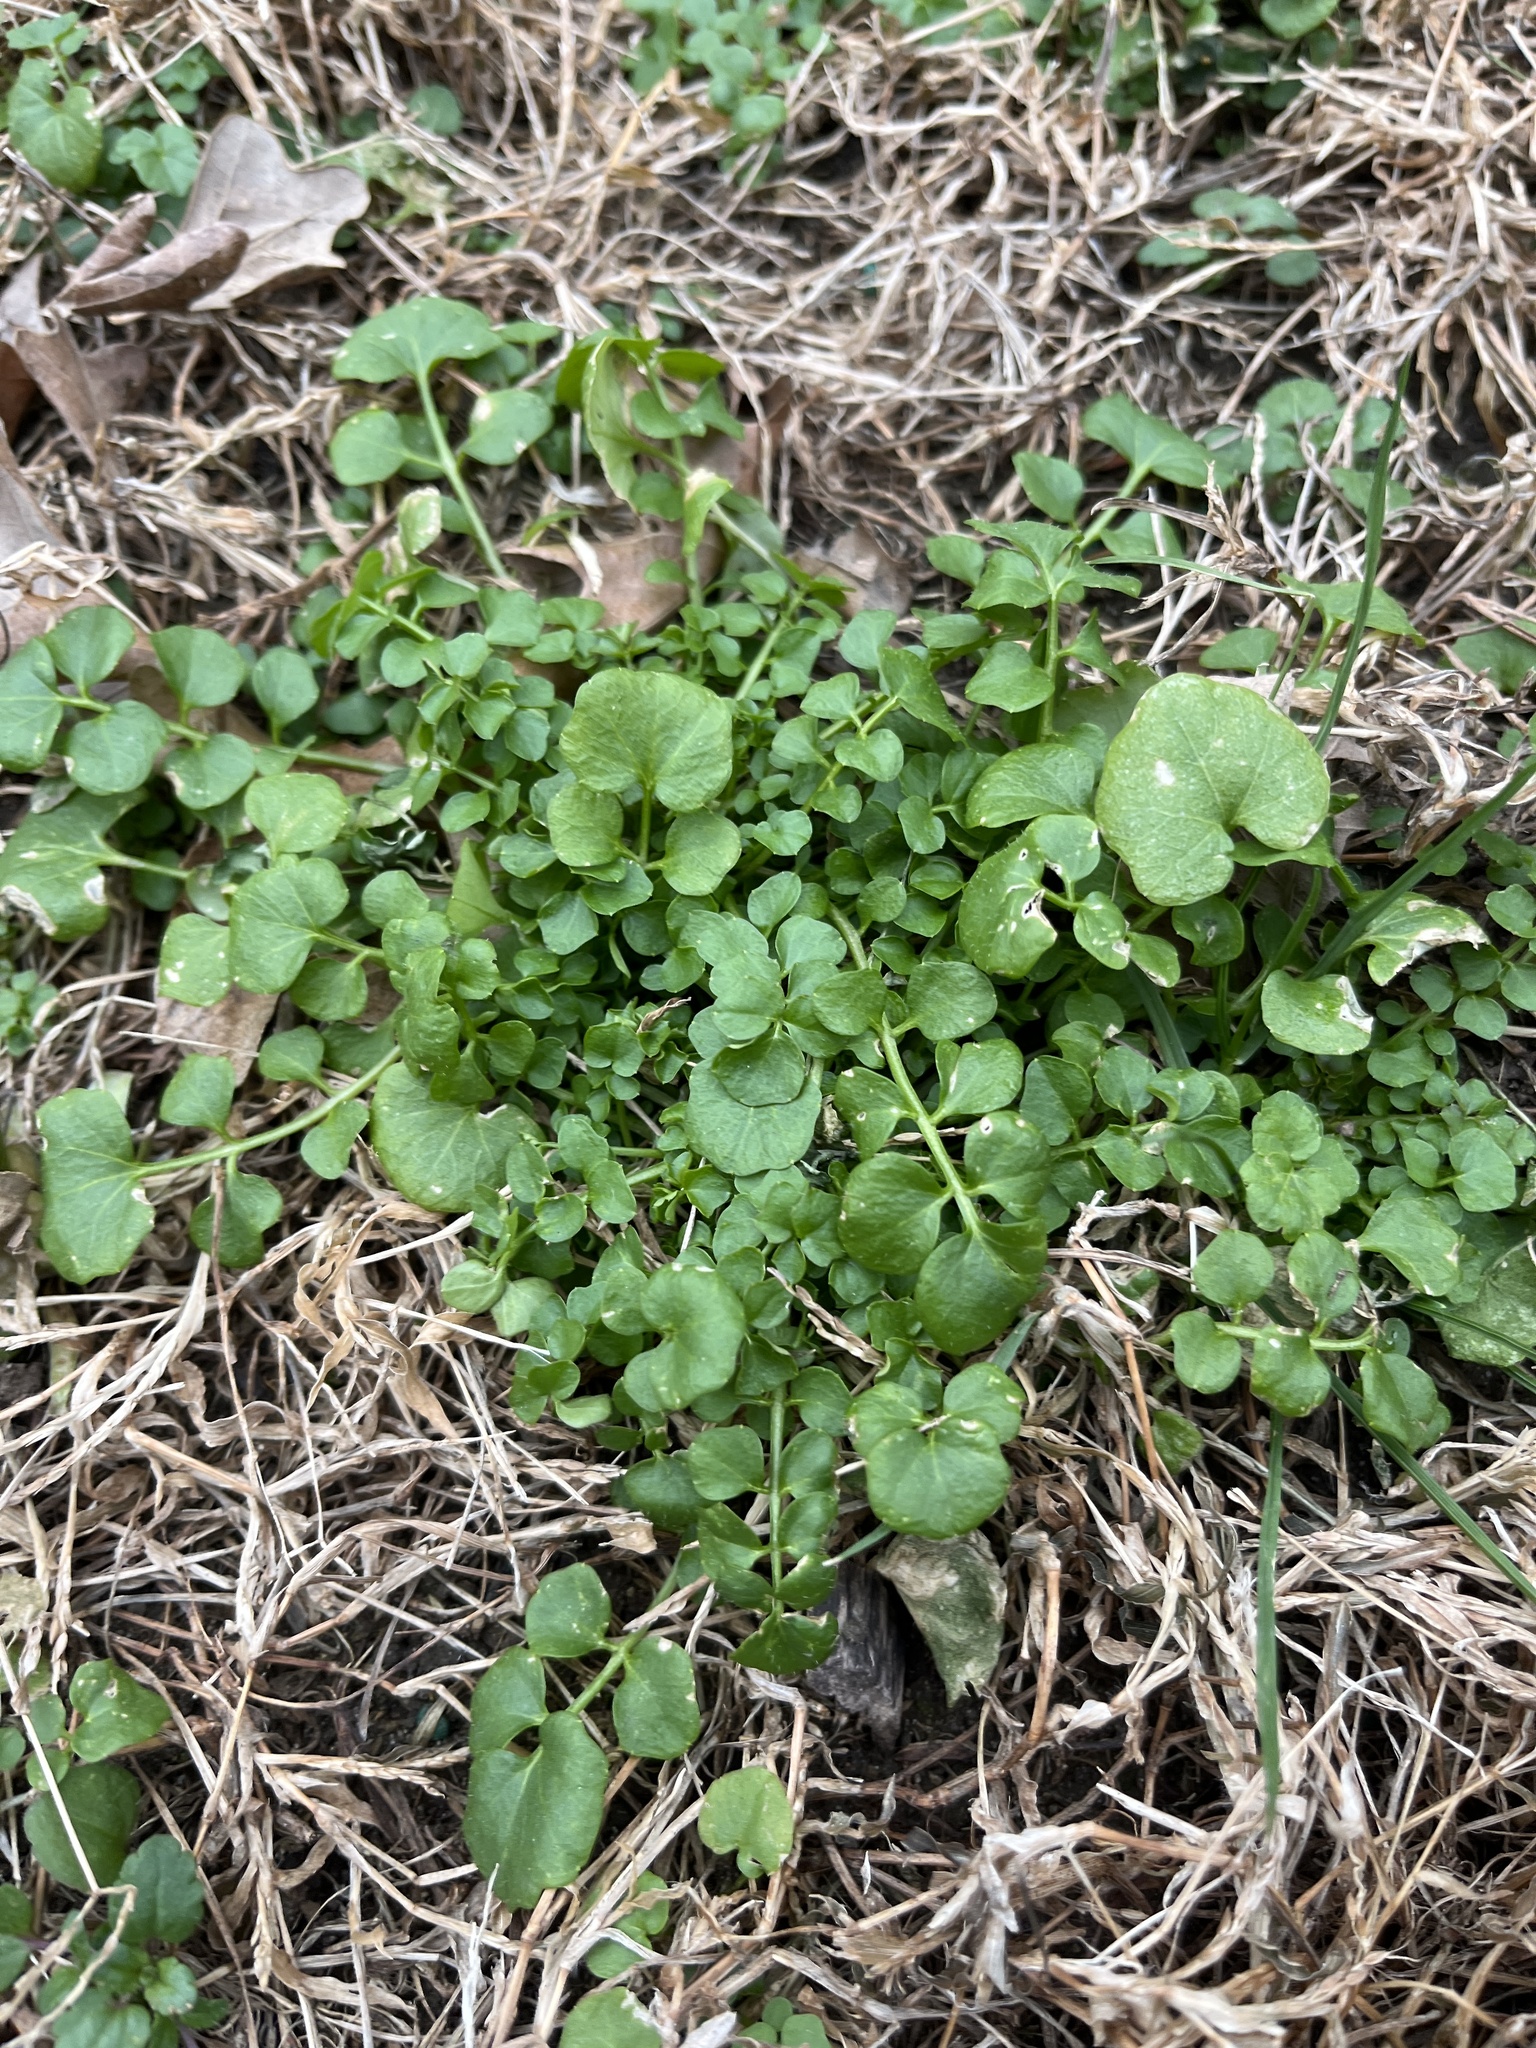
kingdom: Plantae
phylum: Tracheophyta
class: Magnoliopsida
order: Brassicales
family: Brassicaceae
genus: Cardamine
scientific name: Cardamine hirsuta
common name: Hairy bittercress
